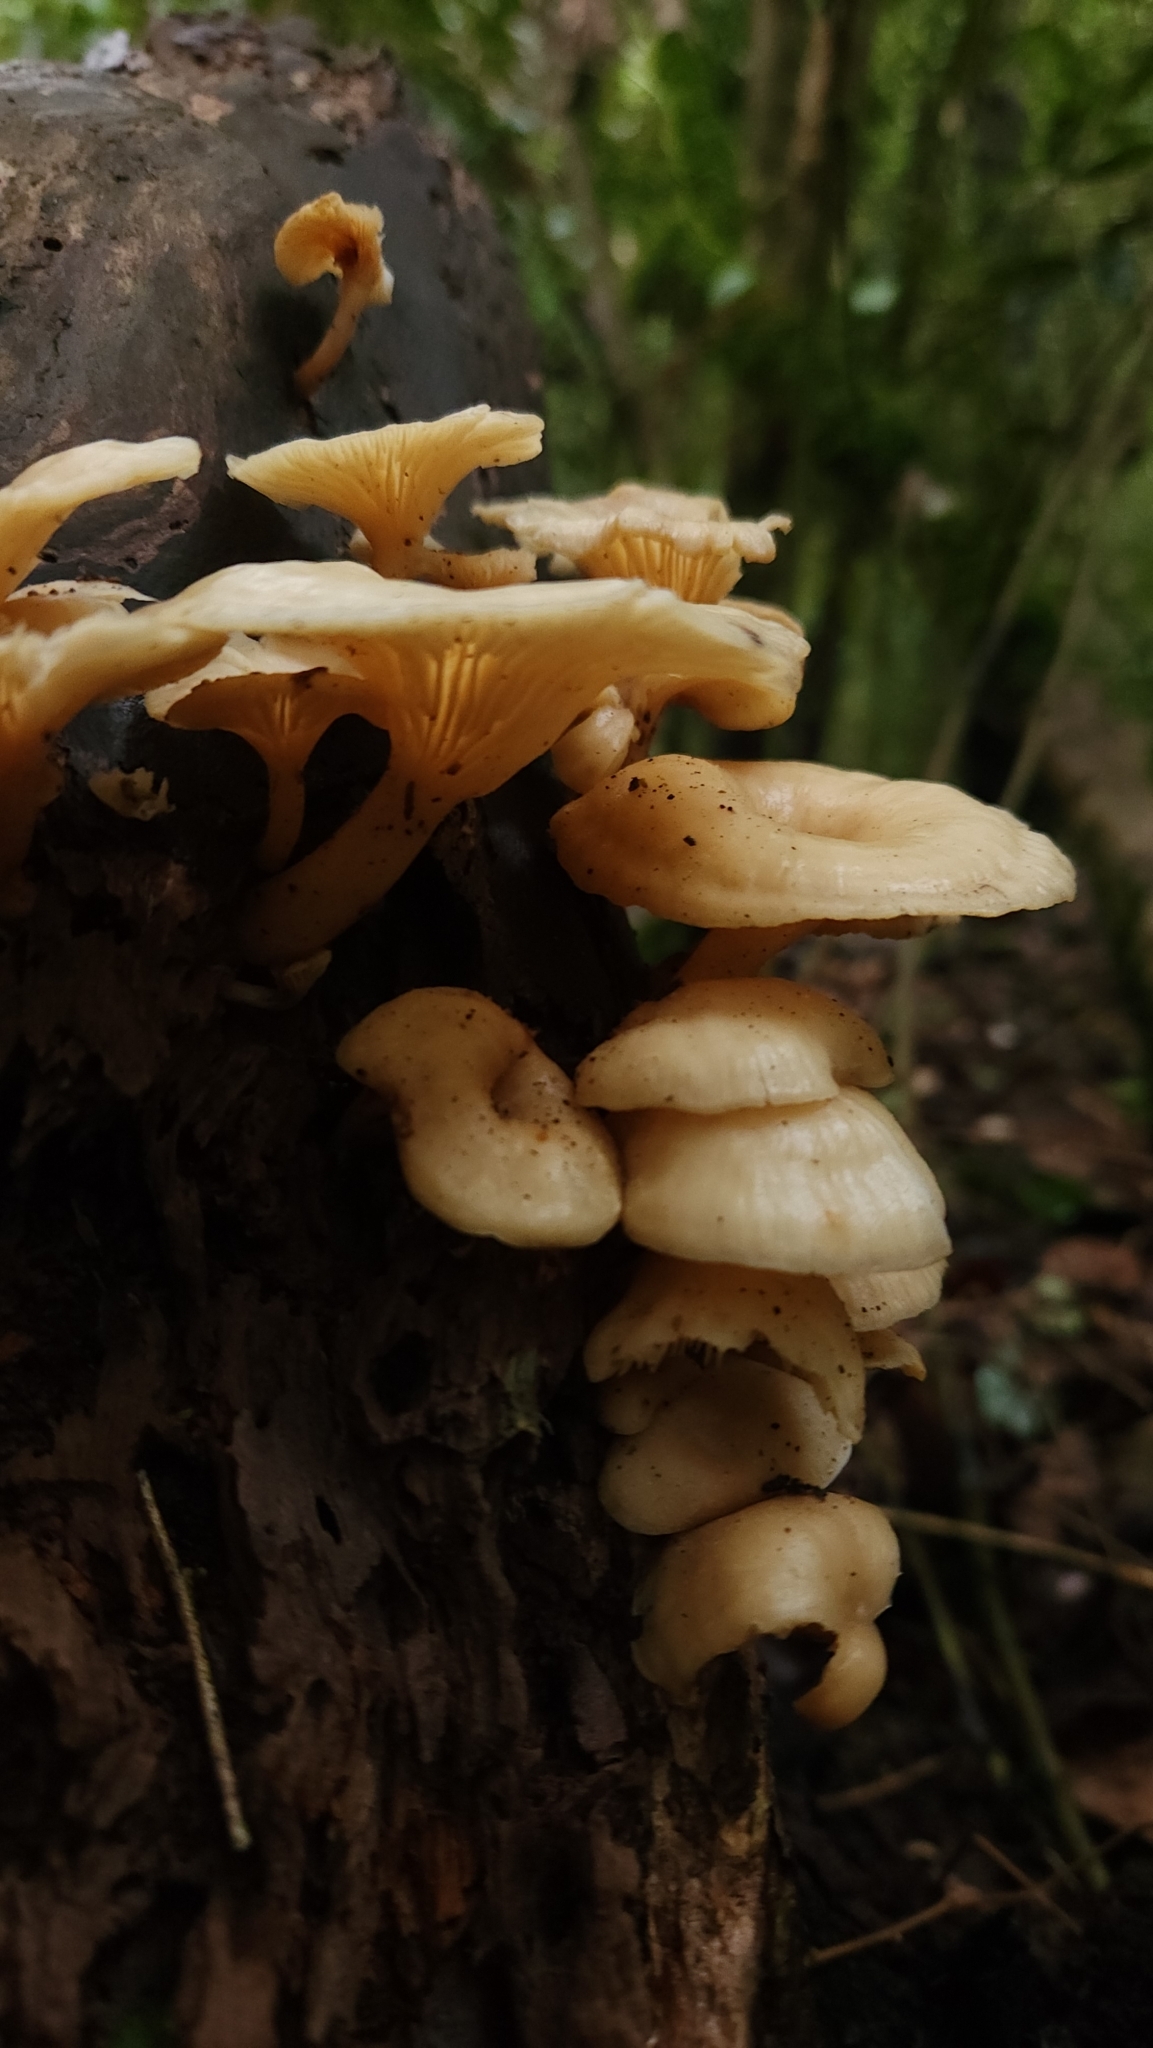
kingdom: Fungi
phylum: Basidiomycota
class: Agaricomycetes
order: Agaricales
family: Mycenaceae
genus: Hydropus
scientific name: Hydropus dusenii
